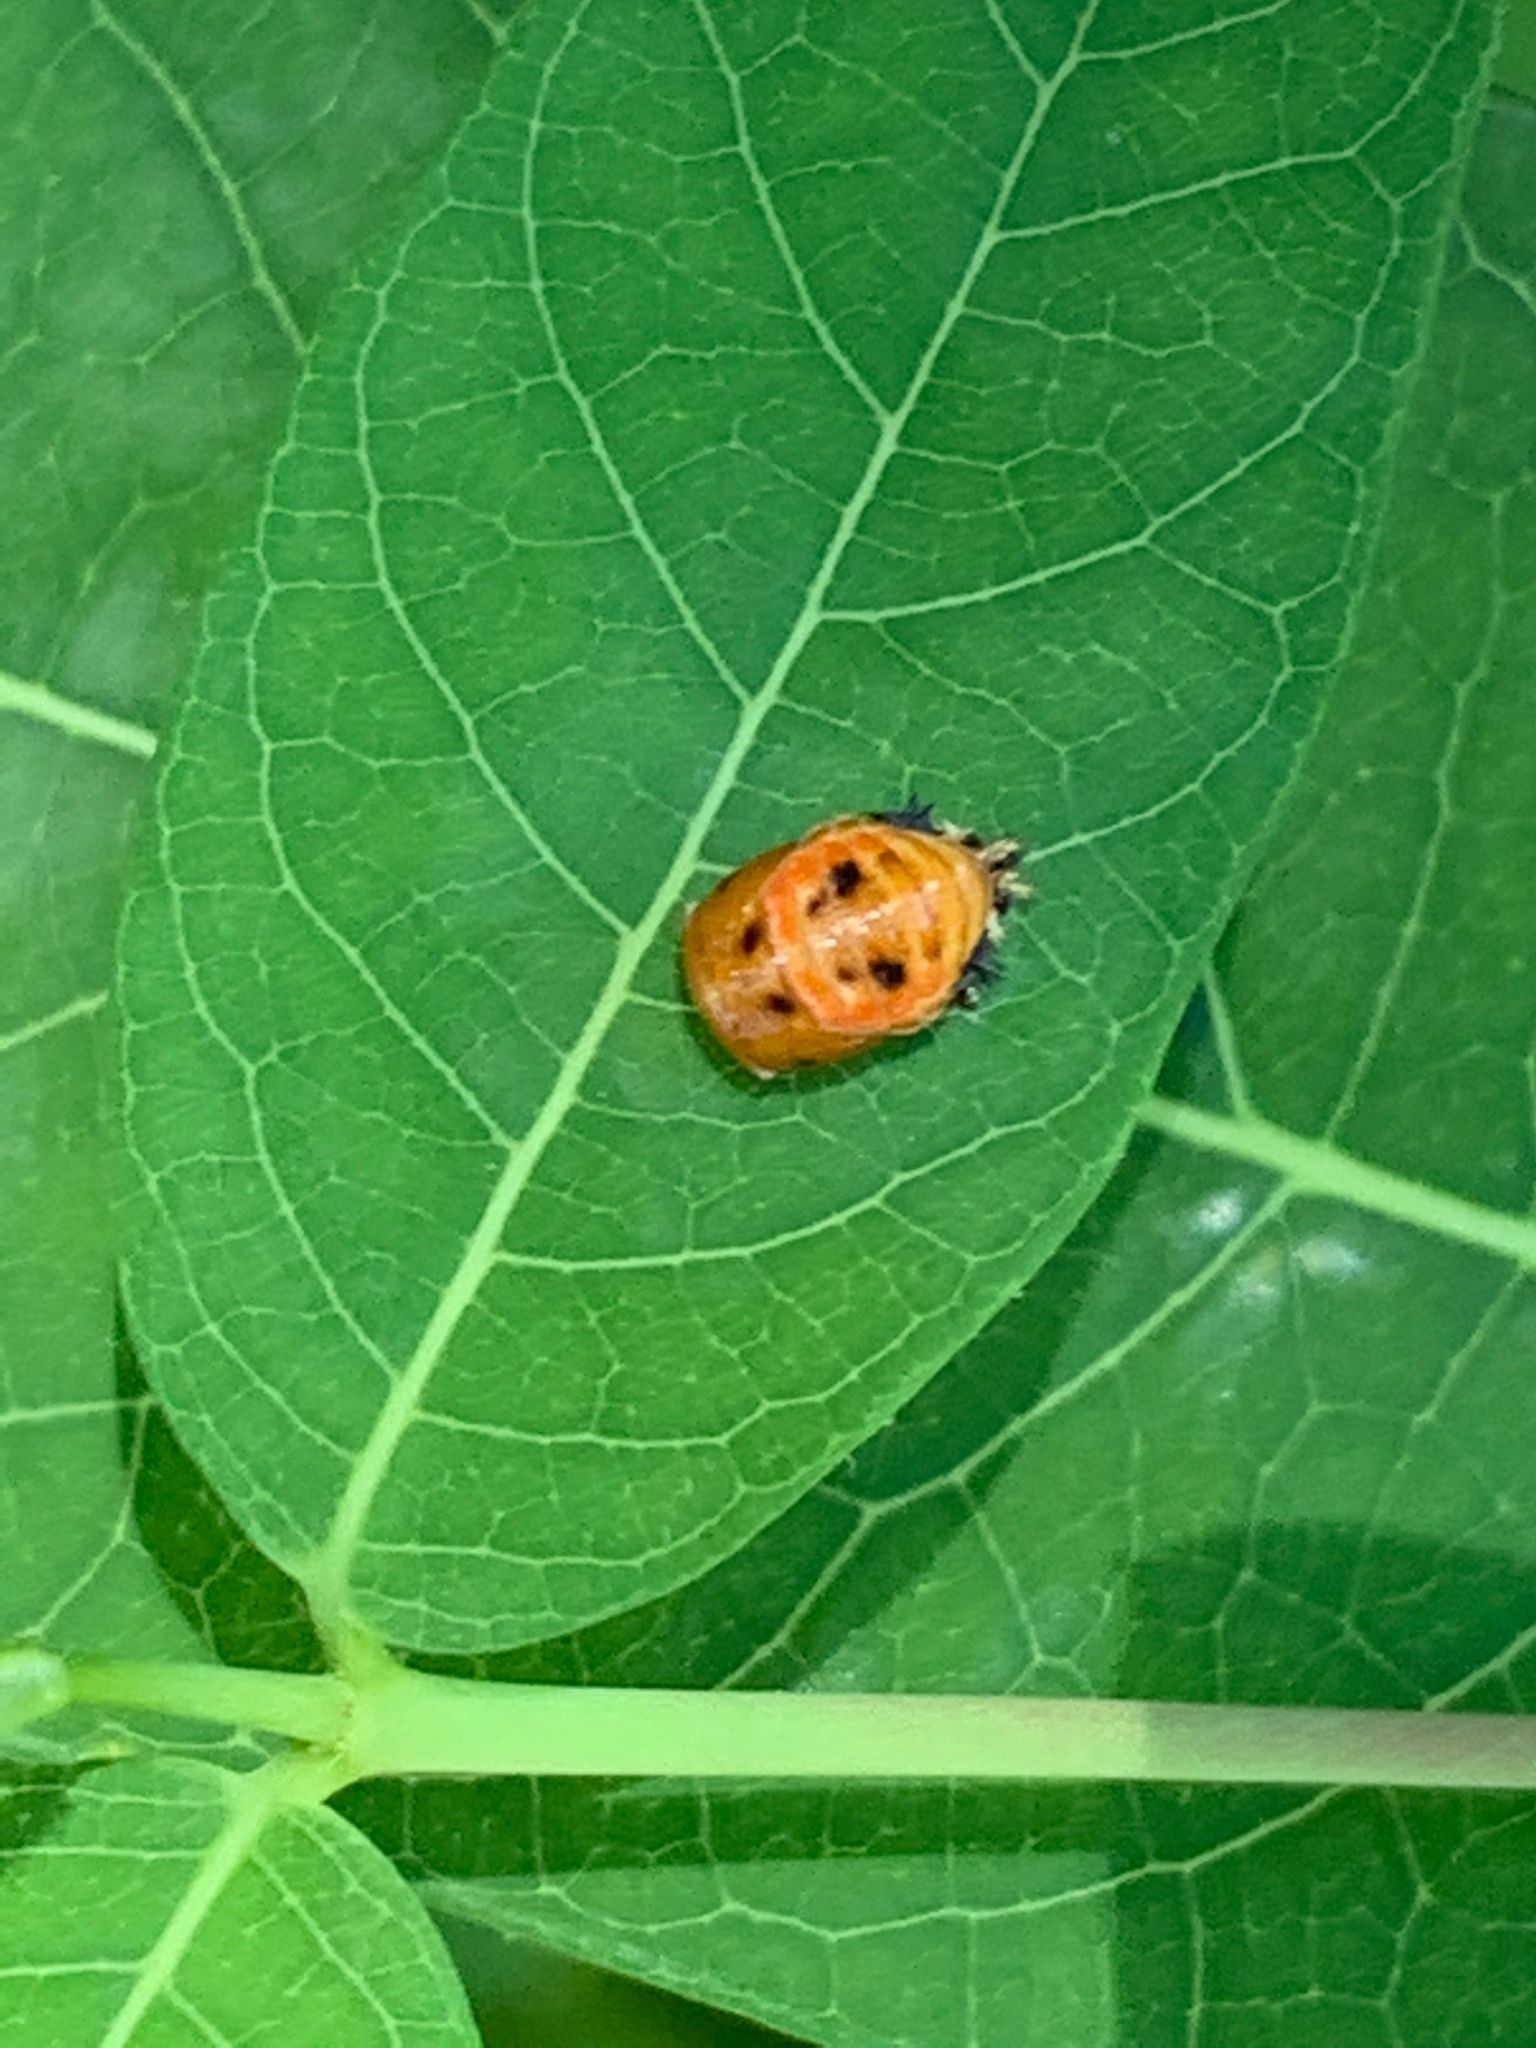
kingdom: Animalia
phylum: Arthropoda
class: Insecta
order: Coleoptera
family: Coccinellidae
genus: Harmonia
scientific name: Harmonia axyridis
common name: Harlequin ladybird
